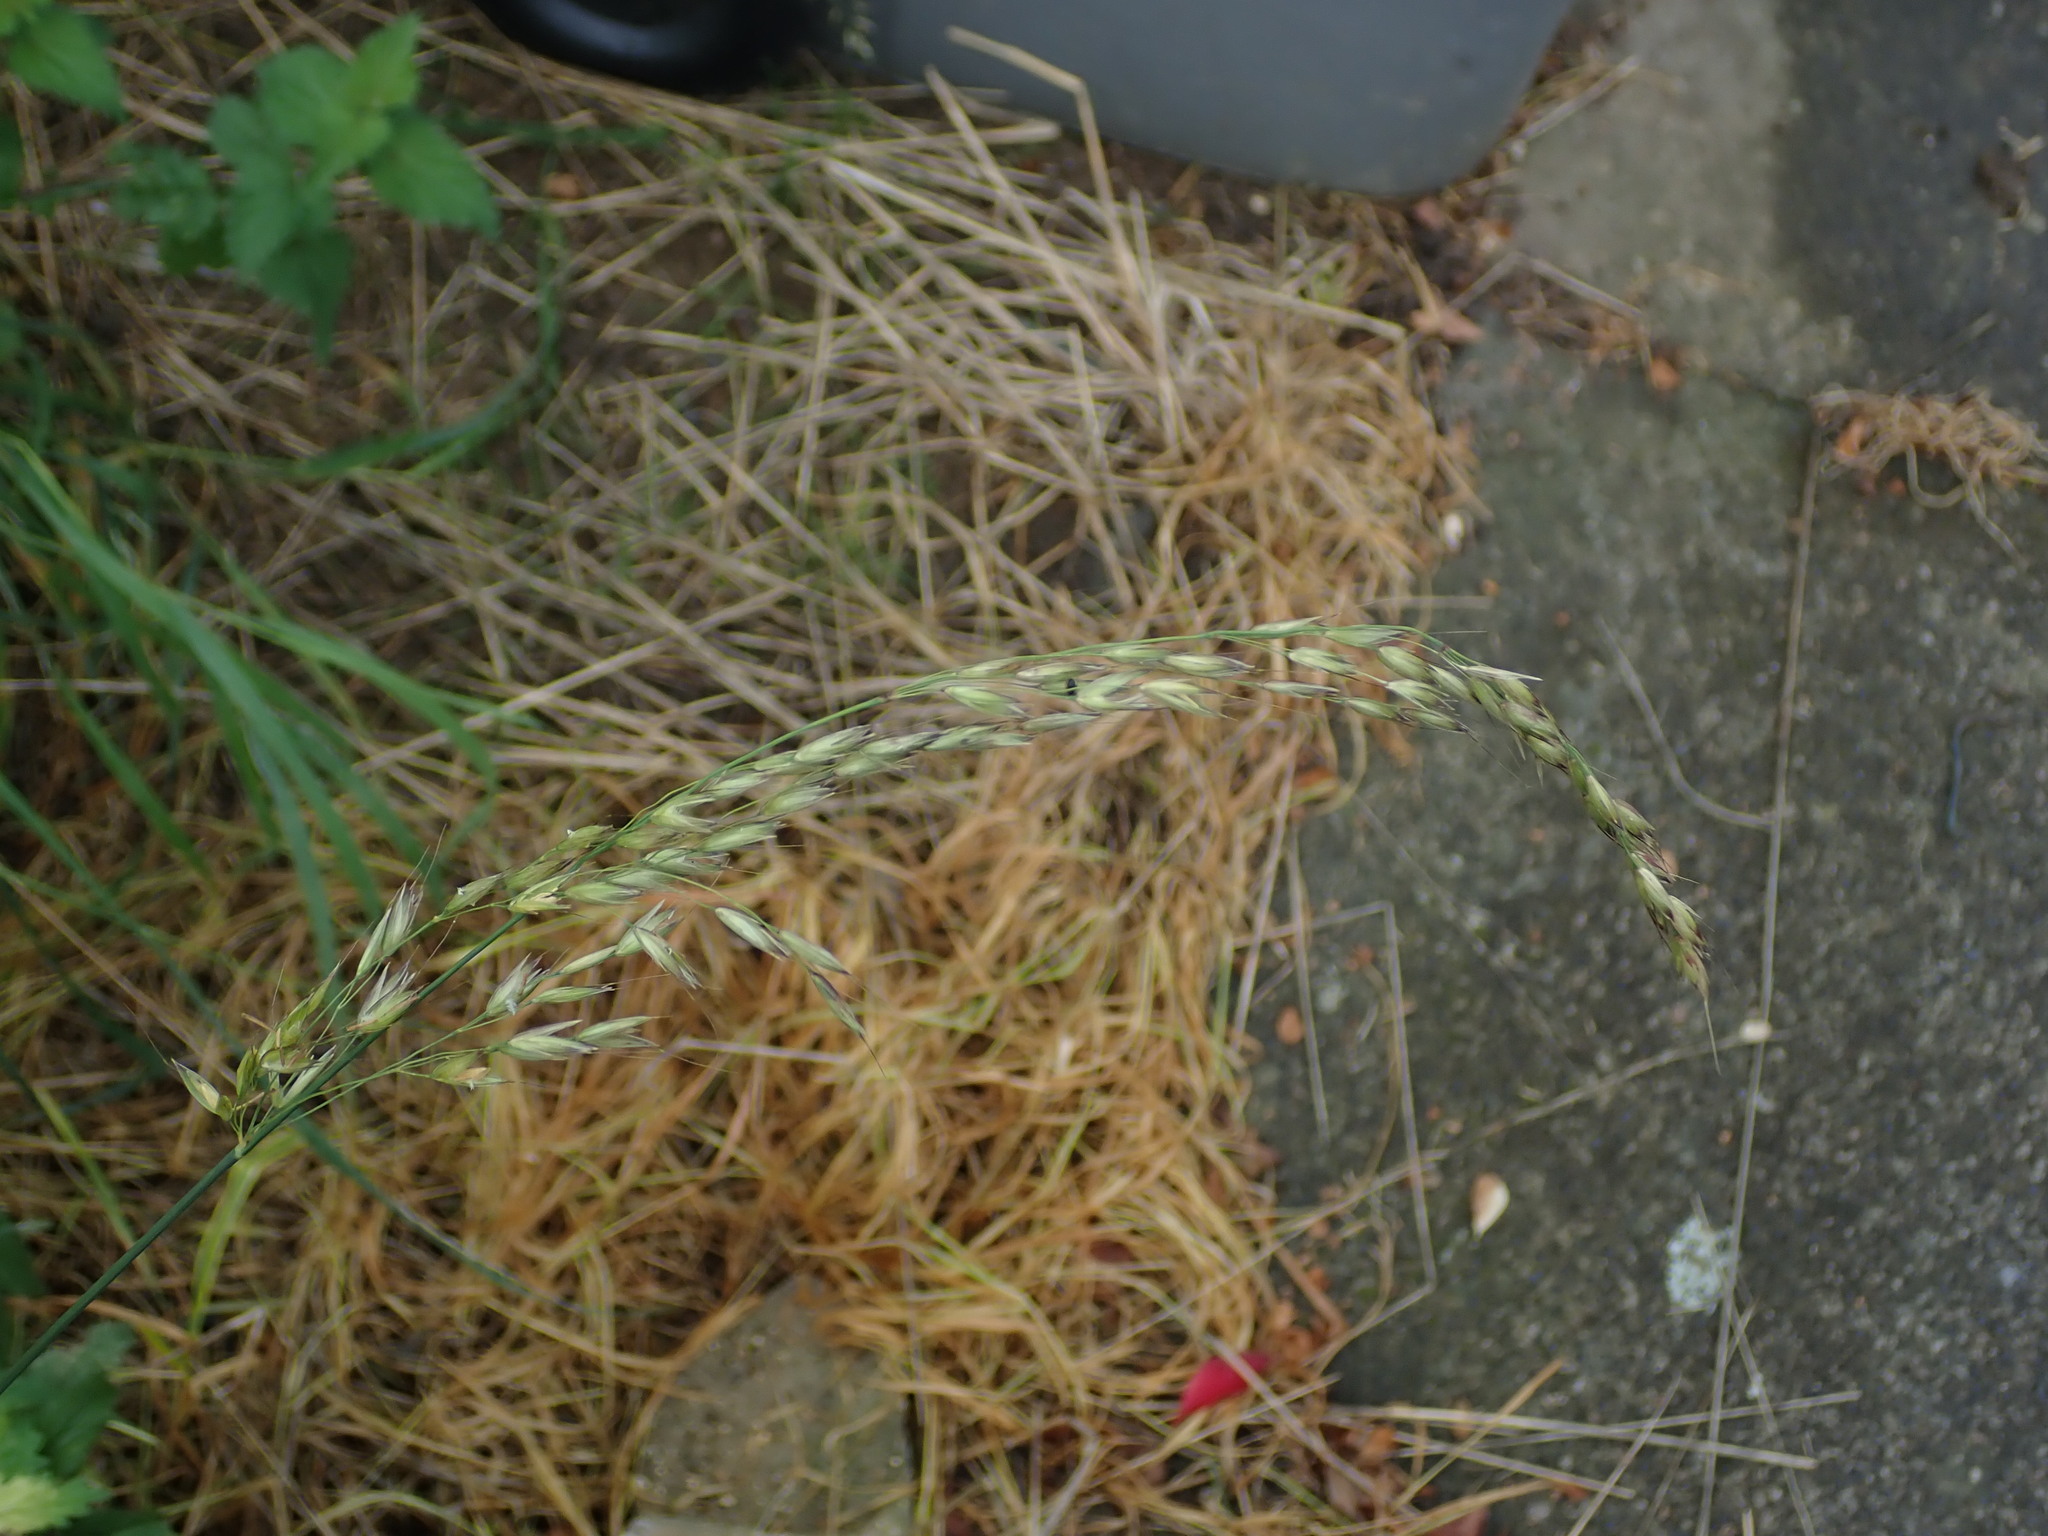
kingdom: Plantae
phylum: Tracheophyta
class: Liliopsida
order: Poales
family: Poaceae
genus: Arrhenatherum
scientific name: Arrhenatherum elatius
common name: Tall oatgrass
